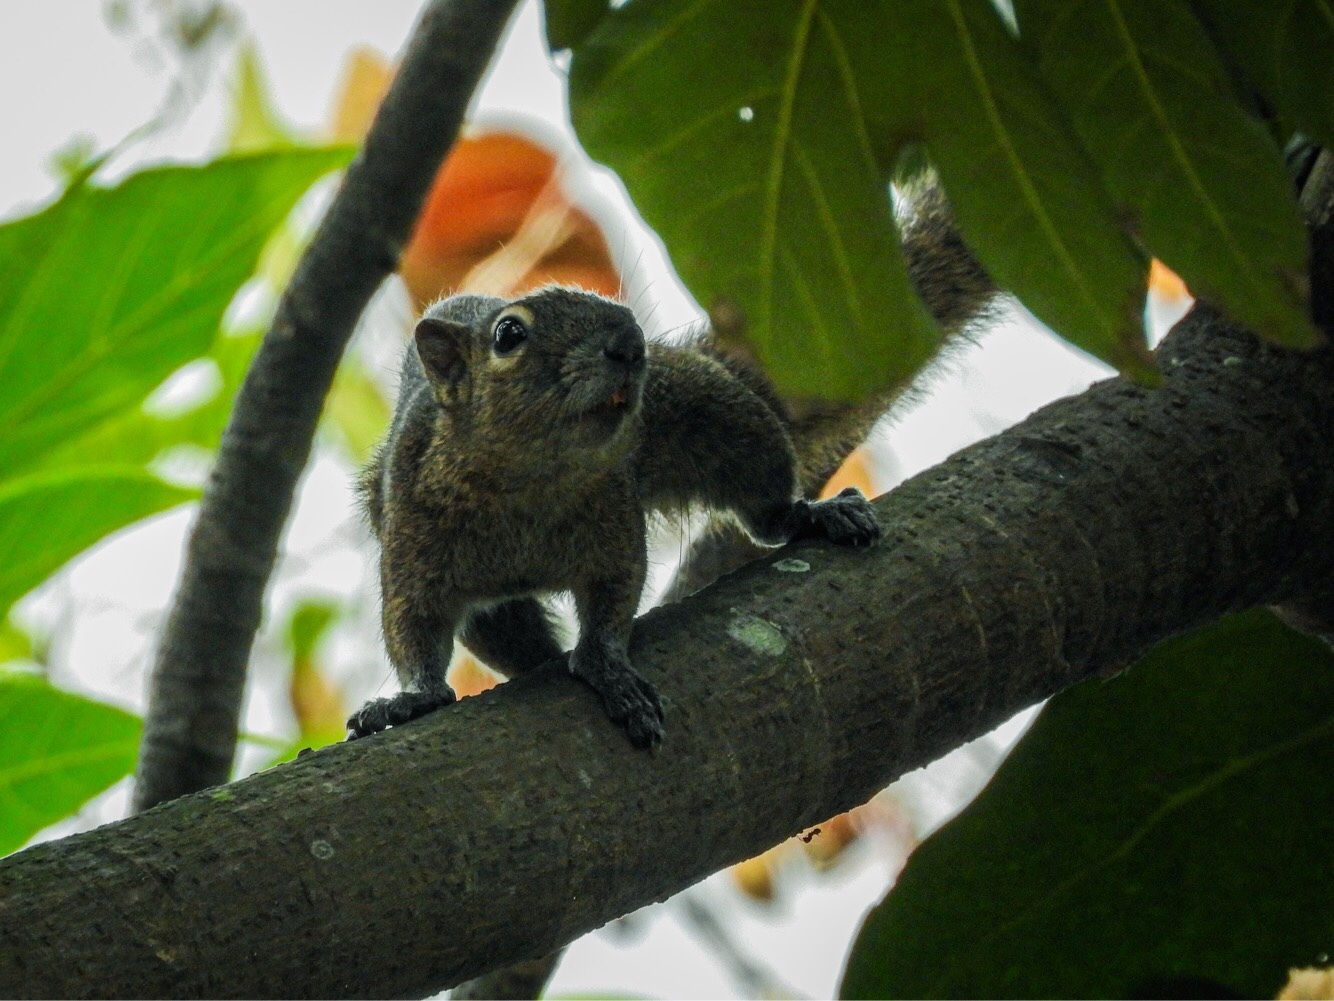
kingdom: Animalia
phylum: Chordata
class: Mammalia
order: Rodentia
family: Sciuridae
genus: Callosciurus
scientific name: Callosciurus notatus
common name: Plantain squirrel
